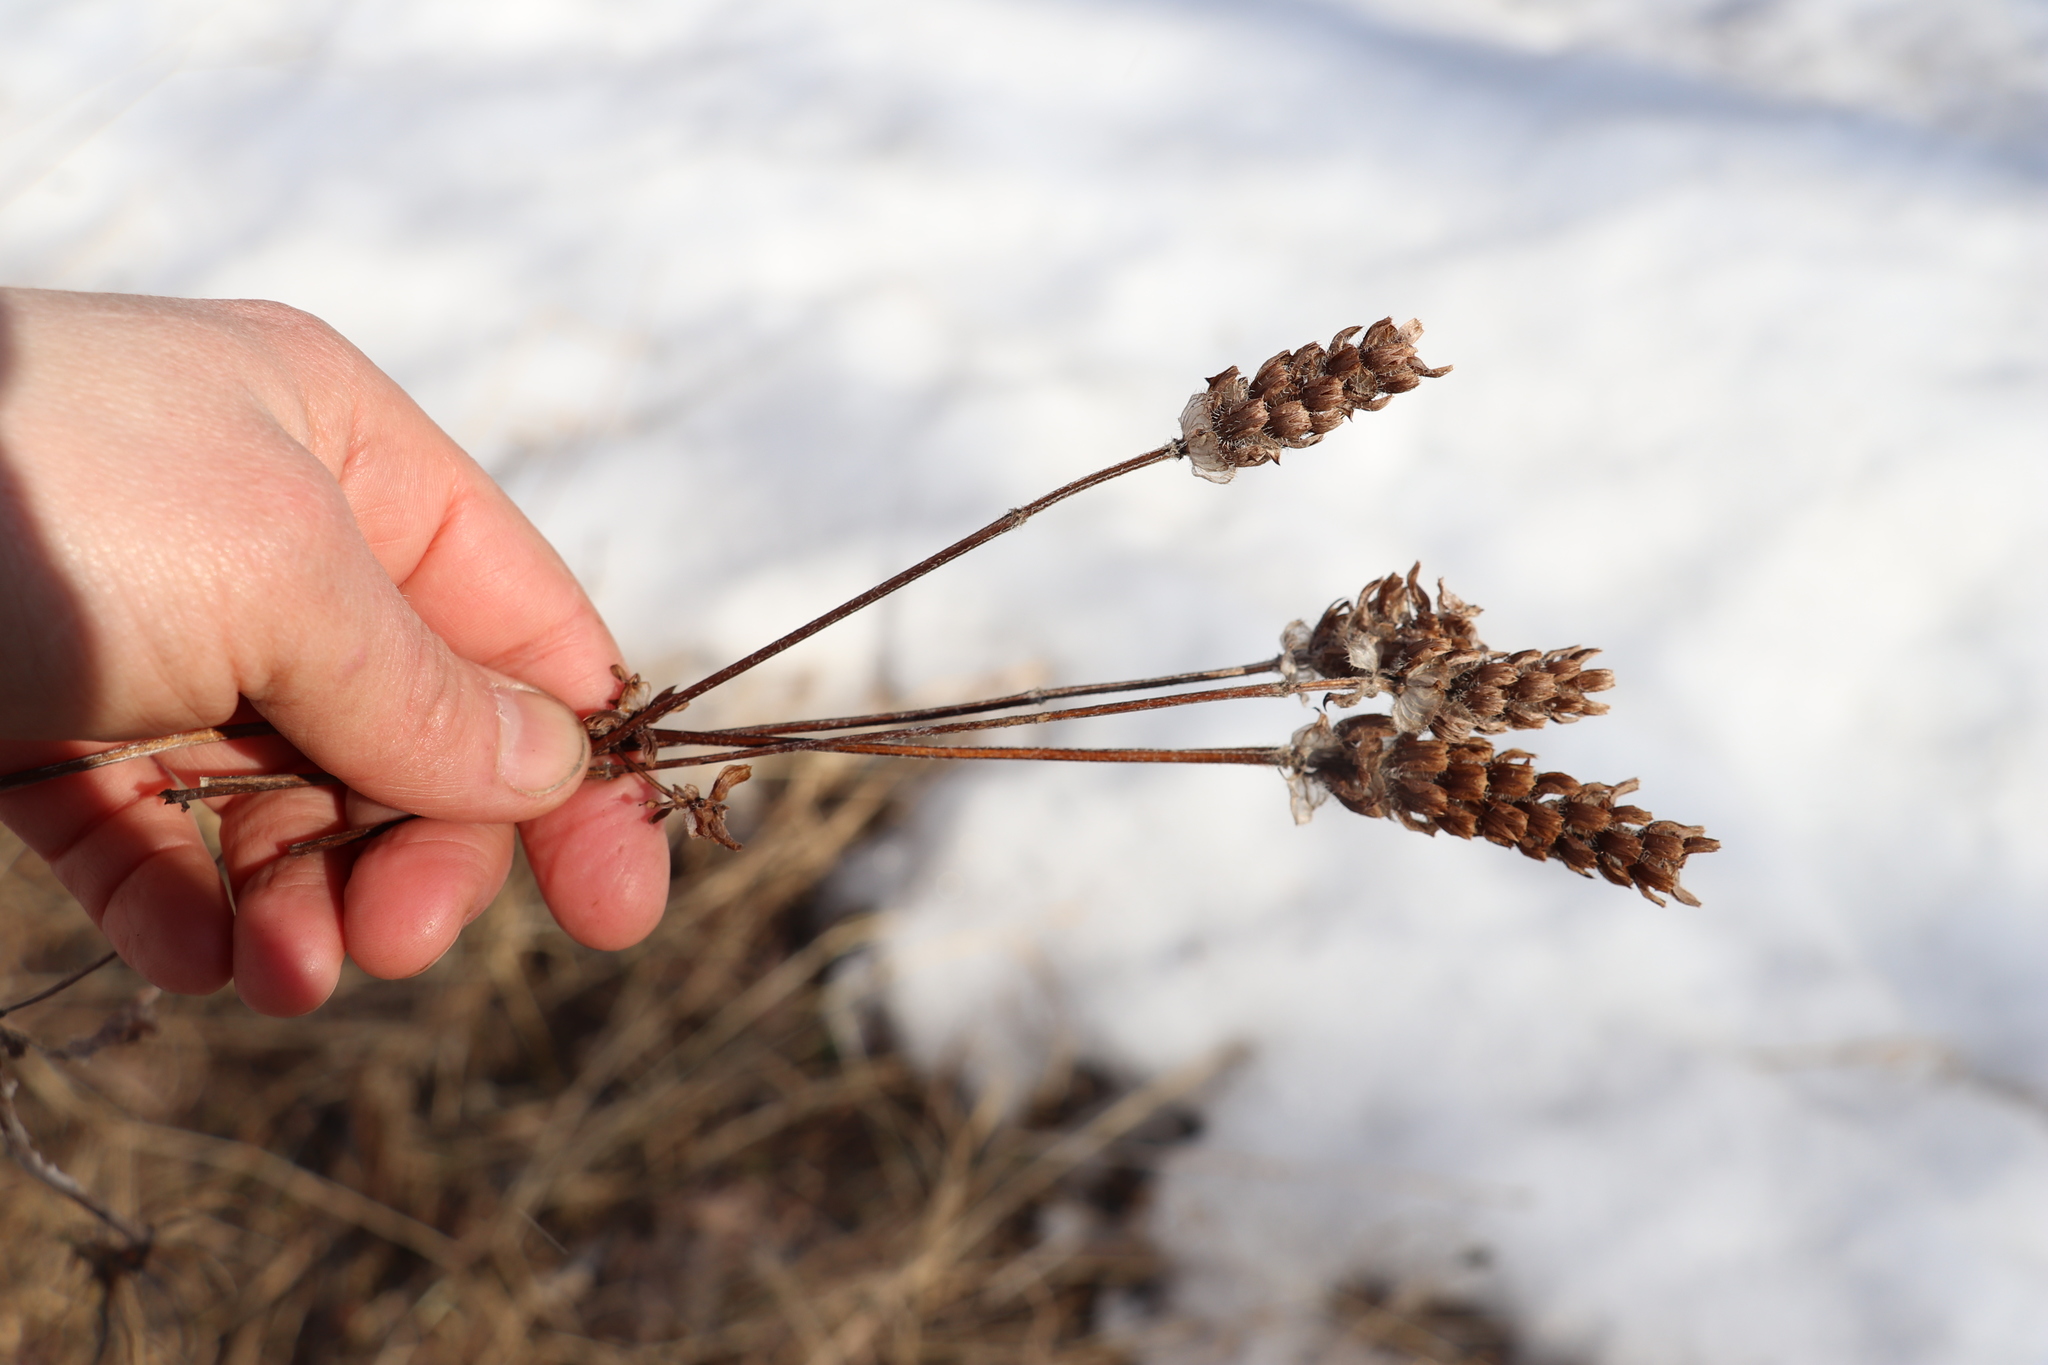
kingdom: Plantae
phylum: Tracheophyta
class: Magnoliopsida
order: Lamiales
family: Lamiaceae
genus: Prunella
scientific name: Prunella vulgaris
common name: Heal-all
